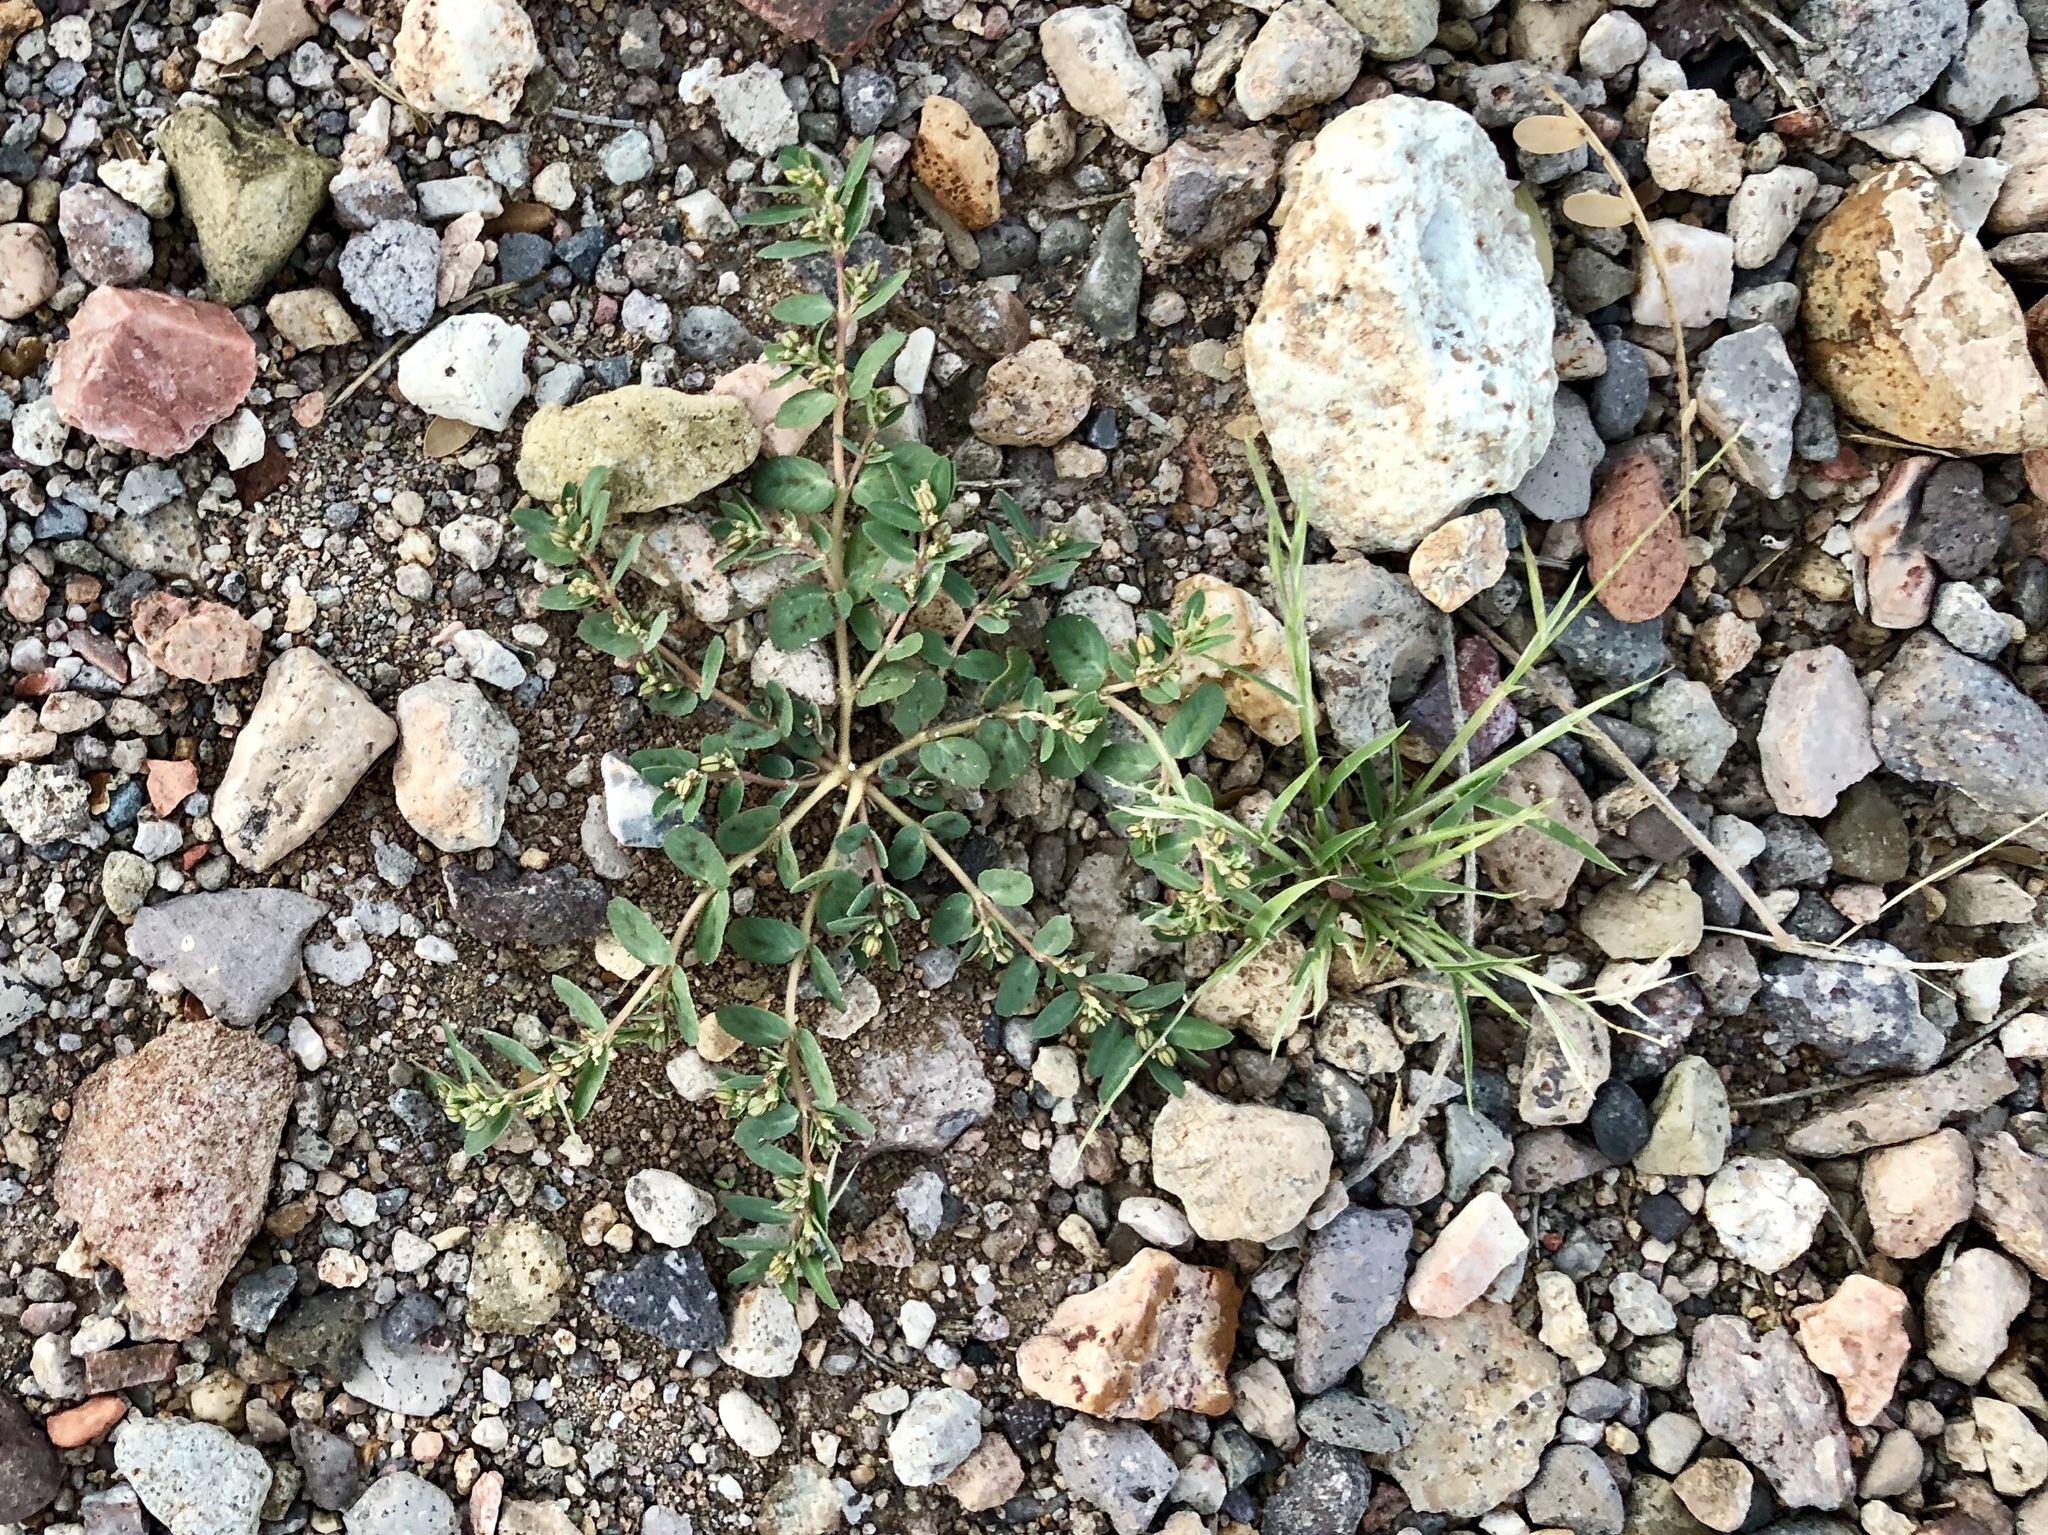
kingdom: Plantae
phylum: Tracheophyta
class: Magnoliopsida
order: Malpighiales
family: Euphorbiaceae
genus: Euphorbia
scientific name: Euphorbia abramsiana
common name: Abram's spurge
